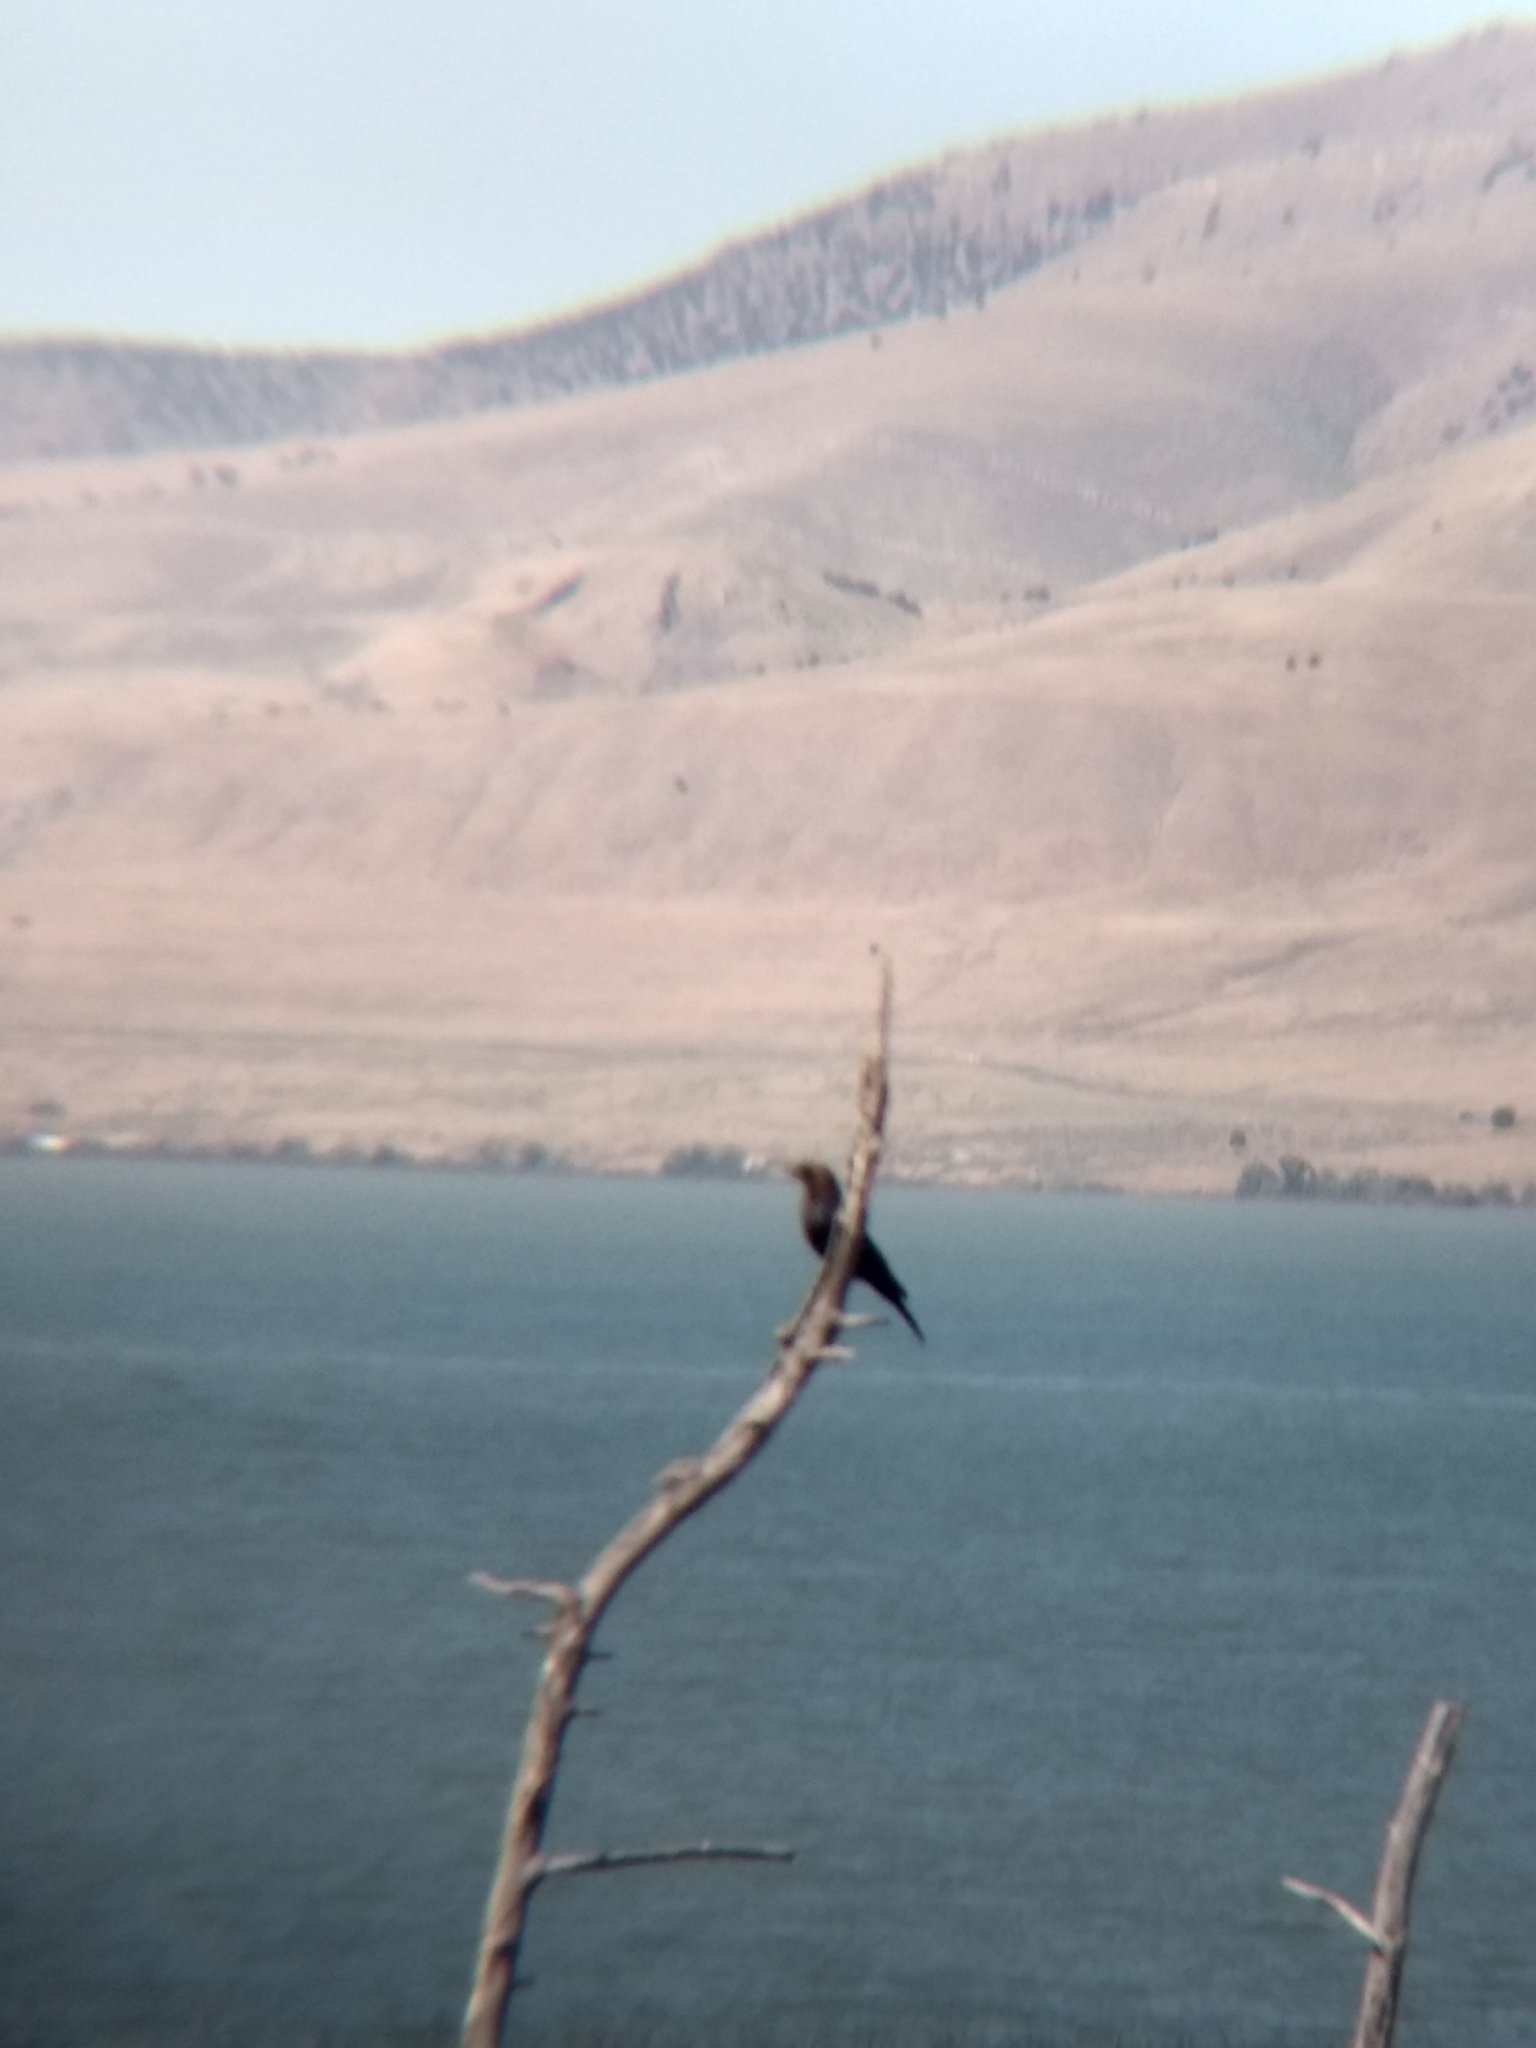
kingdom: Animalia
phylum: Chordata
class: Aves
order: Passeriformes
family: Icteridae
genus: Molothrus
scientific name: Molothrus ater
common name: Brown-headed cowbird
